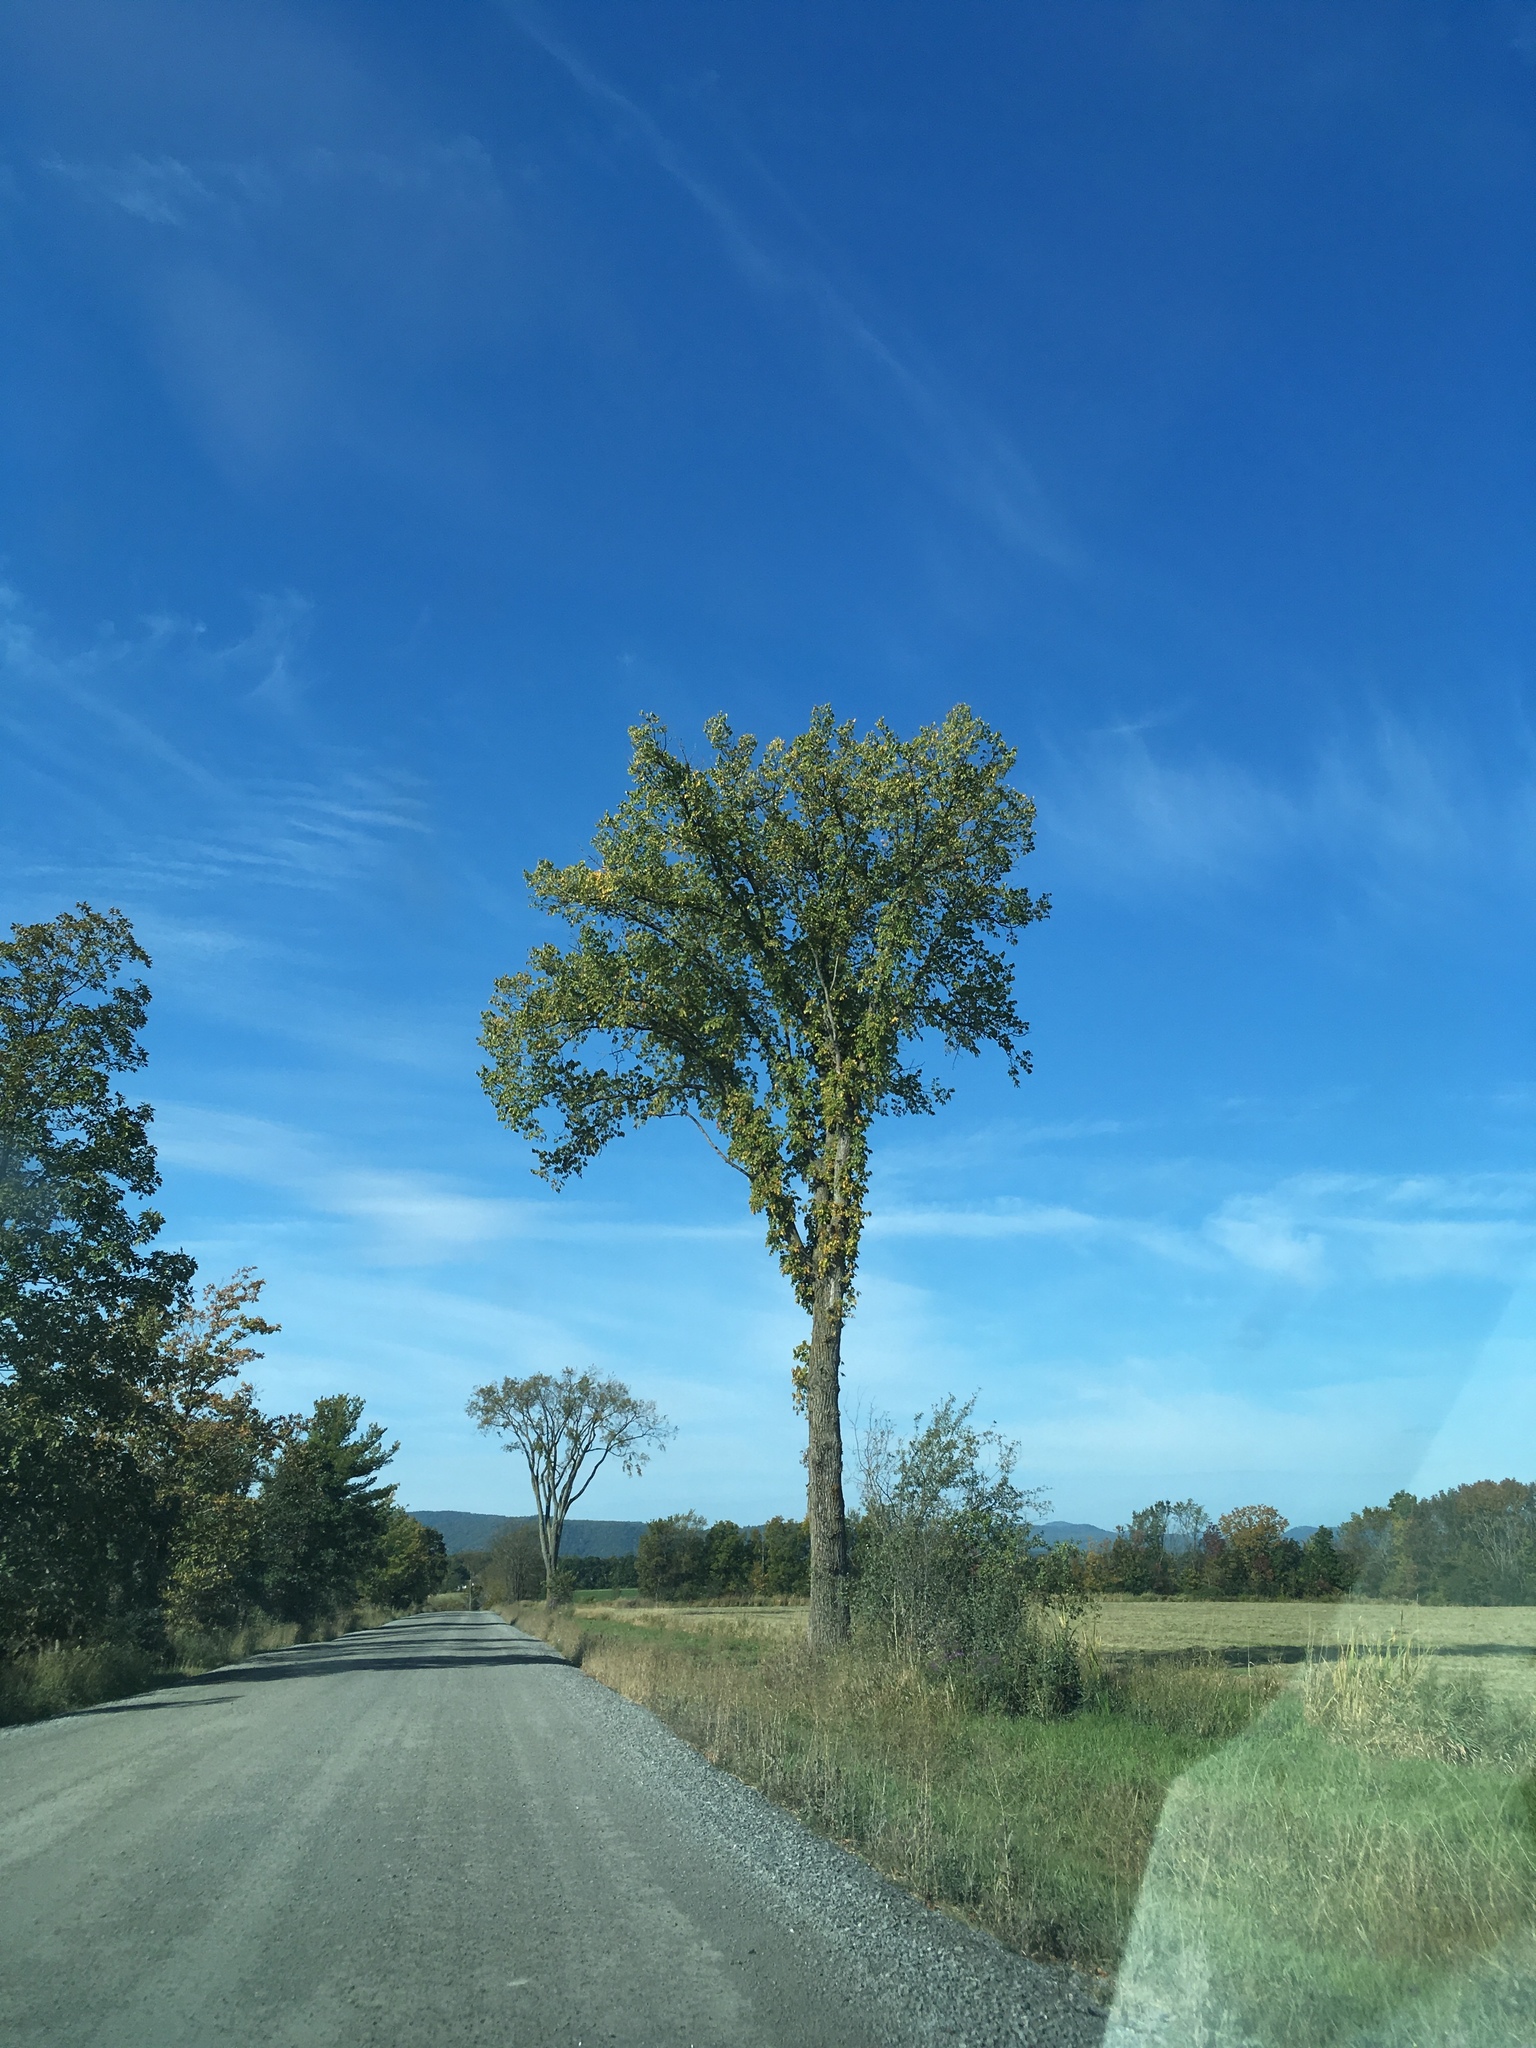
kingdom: Plantae
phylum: Tracheophyta
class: Magnoliopsida
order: Rosales
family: Ulmaceae
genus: Ulmus
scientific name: Ulmus americana
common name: American elm
